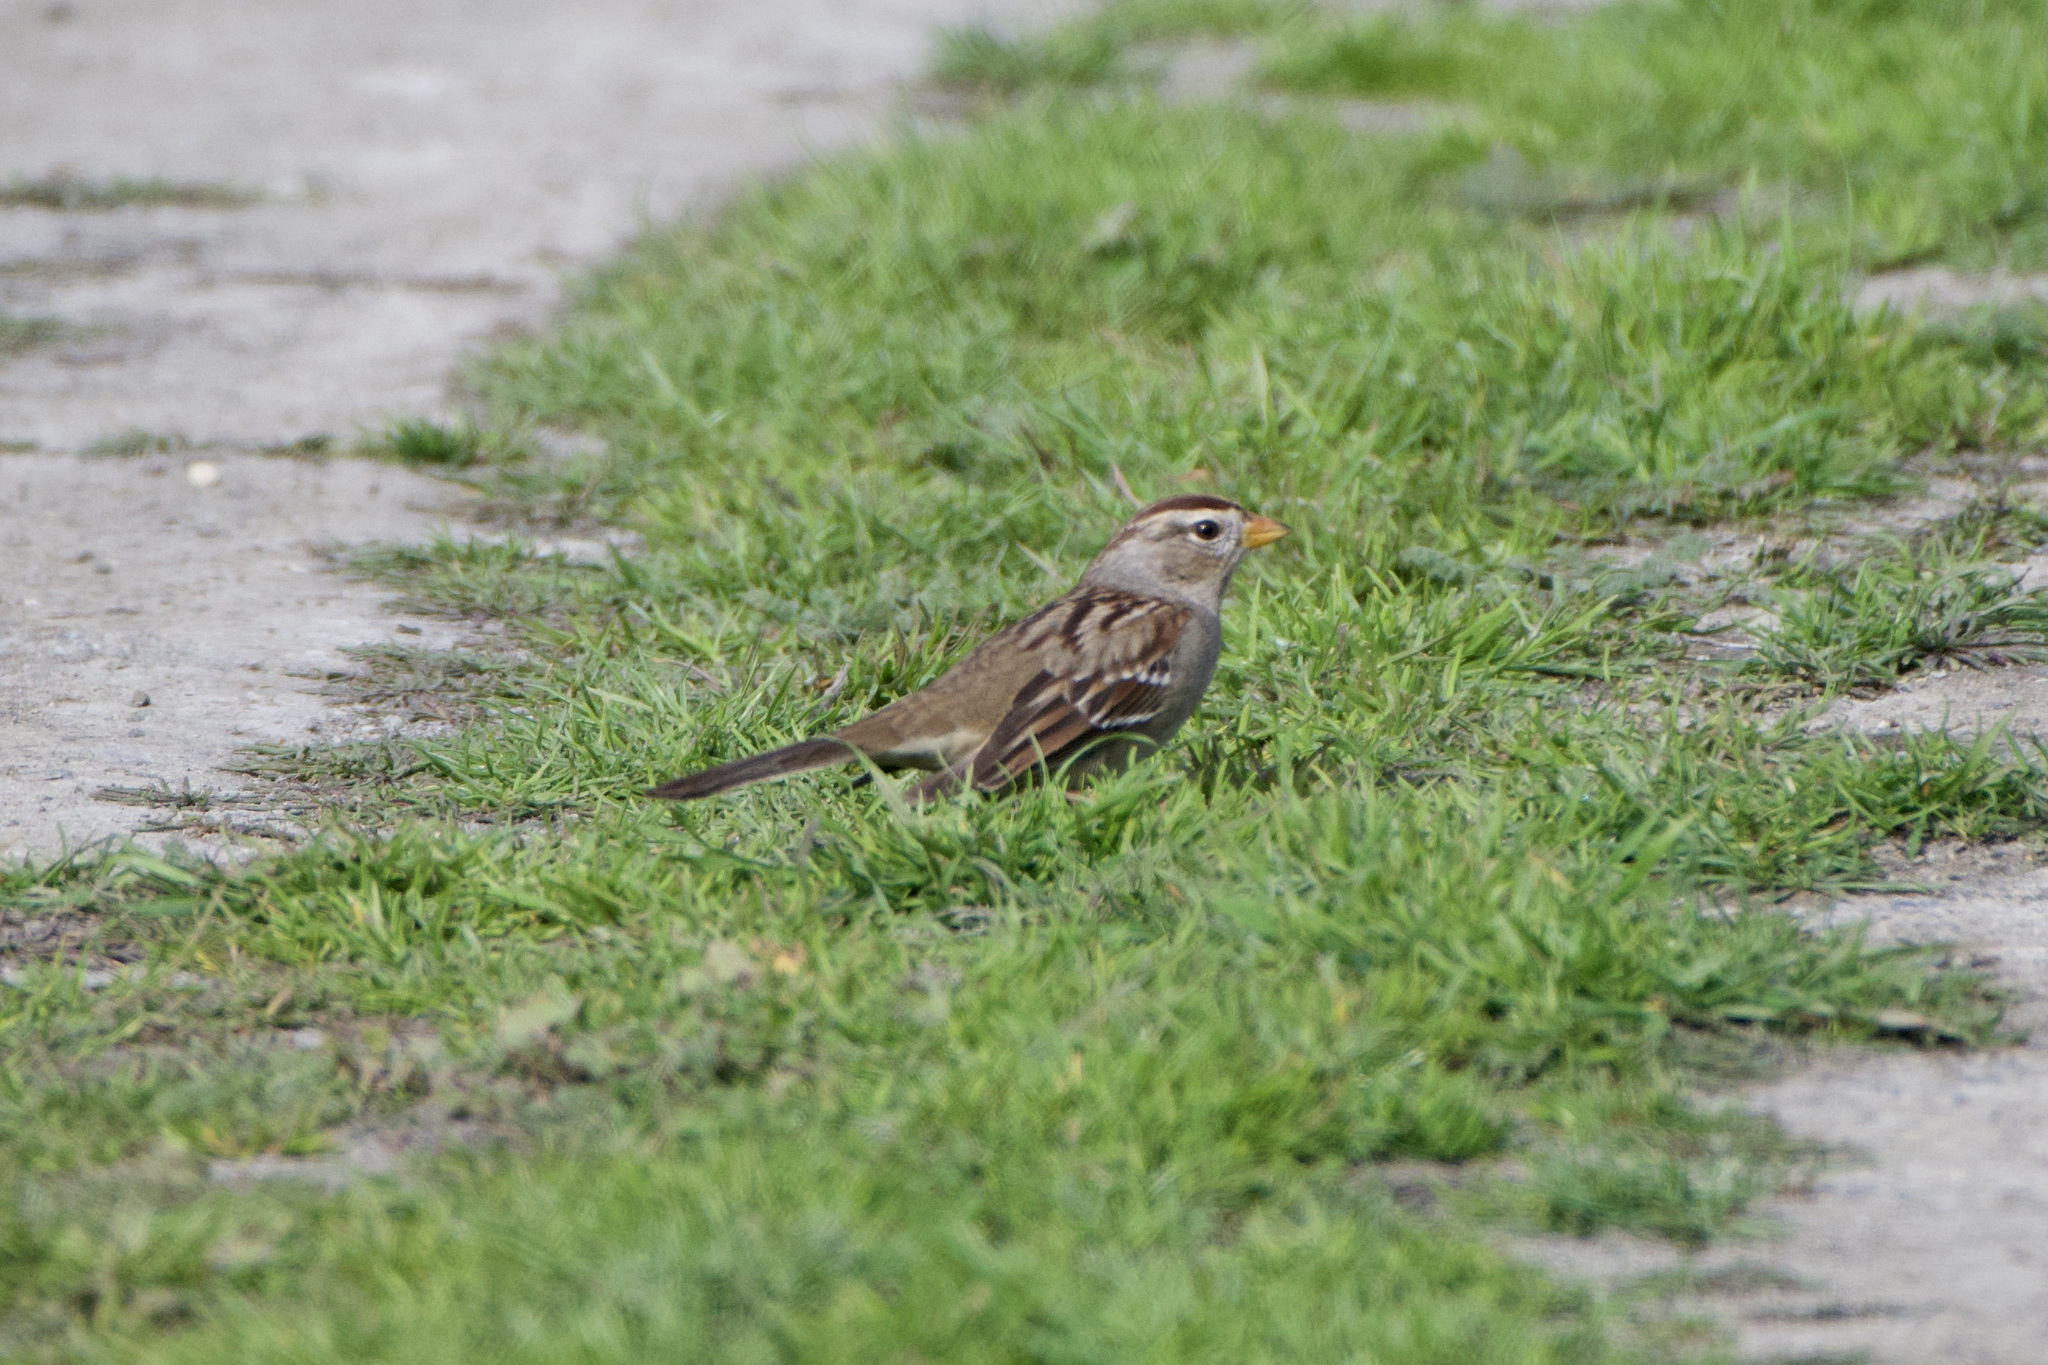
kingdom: Animalia
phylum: Chordata
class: Aves
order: Passeriformes
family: Passerellidae
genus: Zonotrichia
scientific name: Zonotrichia leucophrys
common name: White-crowned sparrow
